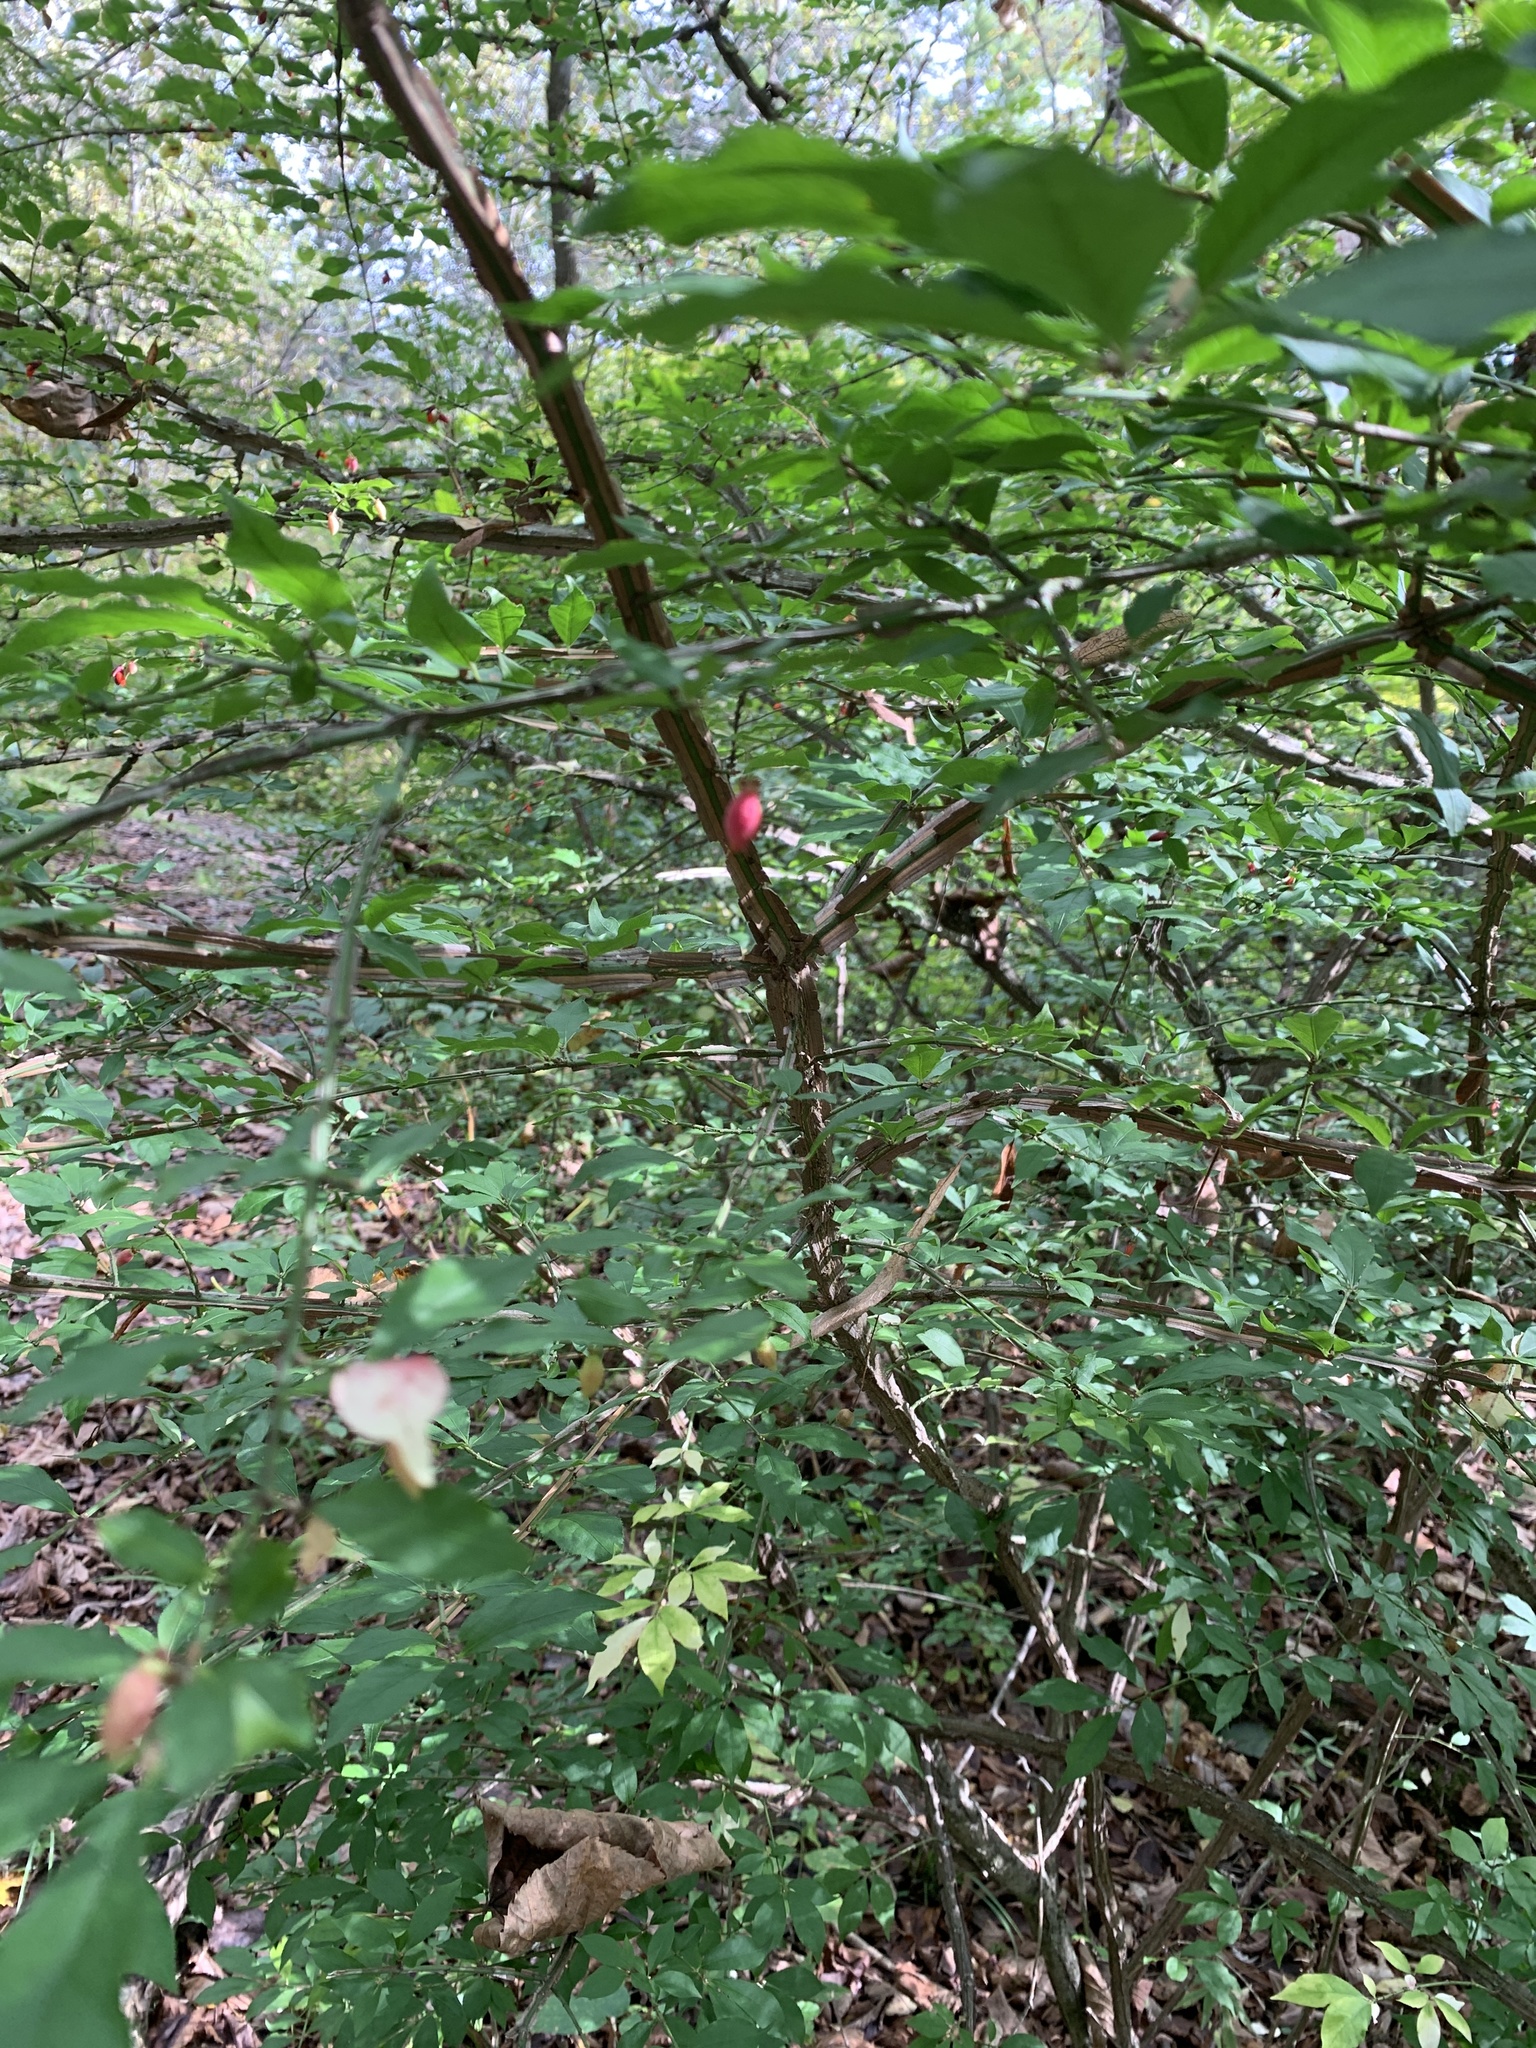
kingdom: Plantae
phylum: Tracheophyta
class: Magnoliopsida
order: Celastrales
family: Celastraceae
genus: Euonymus
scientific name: Euonymus alatus
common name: Winged euonymus
